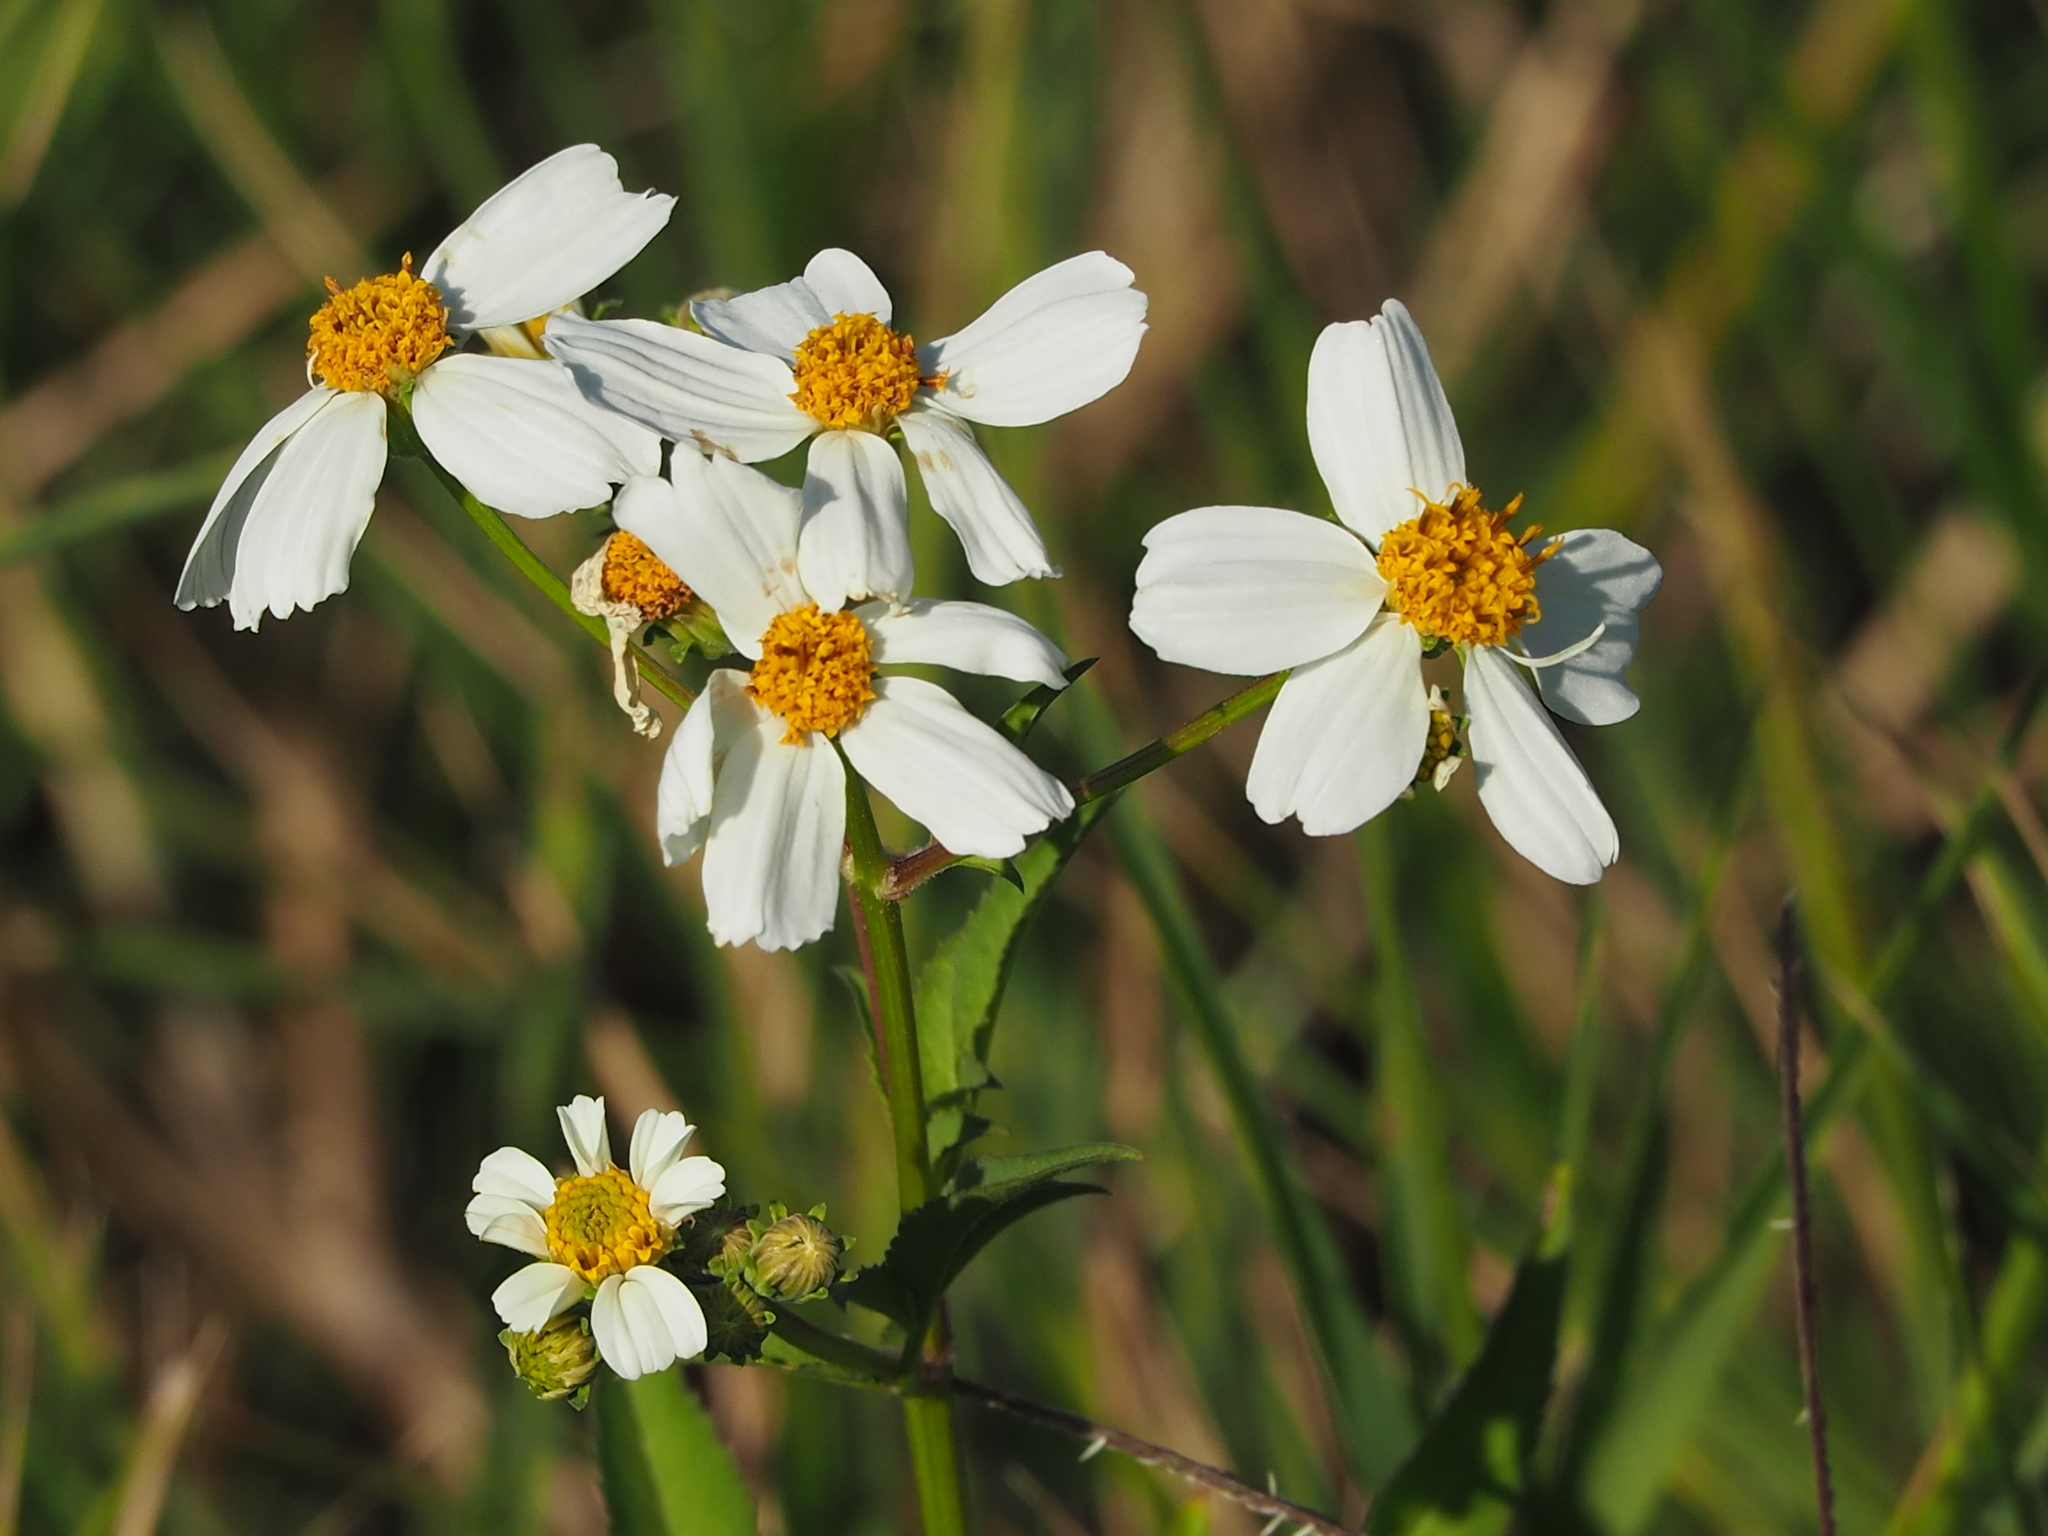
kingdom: Plantae
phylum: Tracheophyta
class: Magnoliopsida
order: Asterales
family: Asteraceae
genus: Bidens
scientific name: Bidens alba
